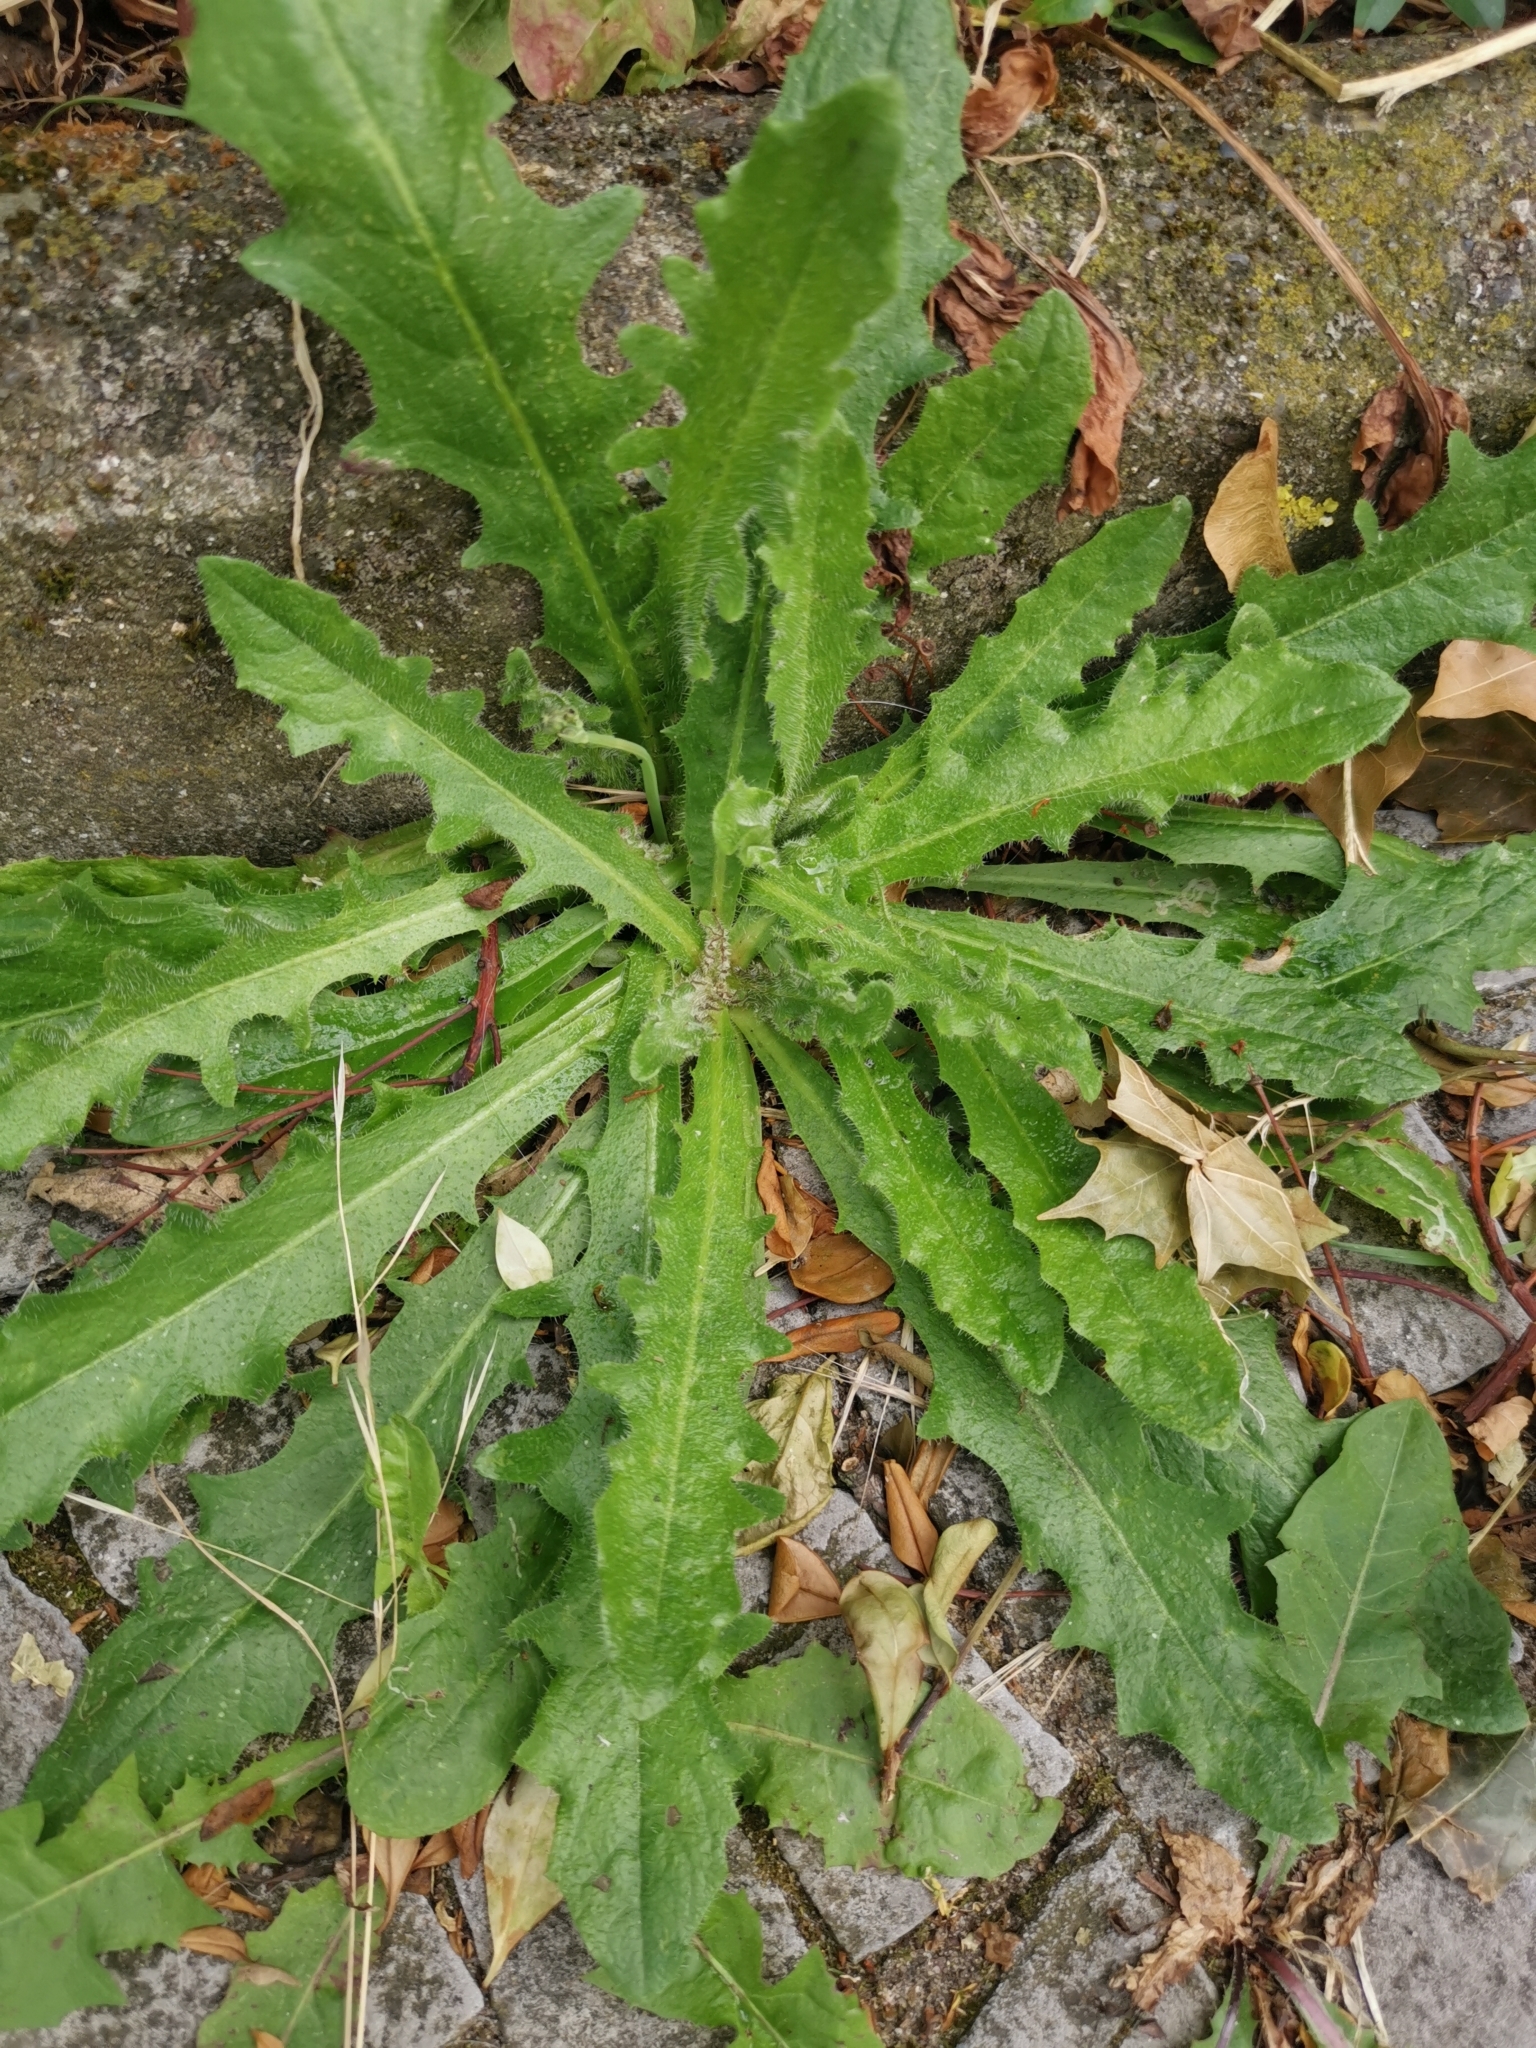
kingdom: Plantae
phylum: Tracheophyta
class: Magnoliopsida
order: Asterales
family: Asteraceae
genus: Hypochaeris
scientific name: Hypochaeris radicata
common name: Flatweed
